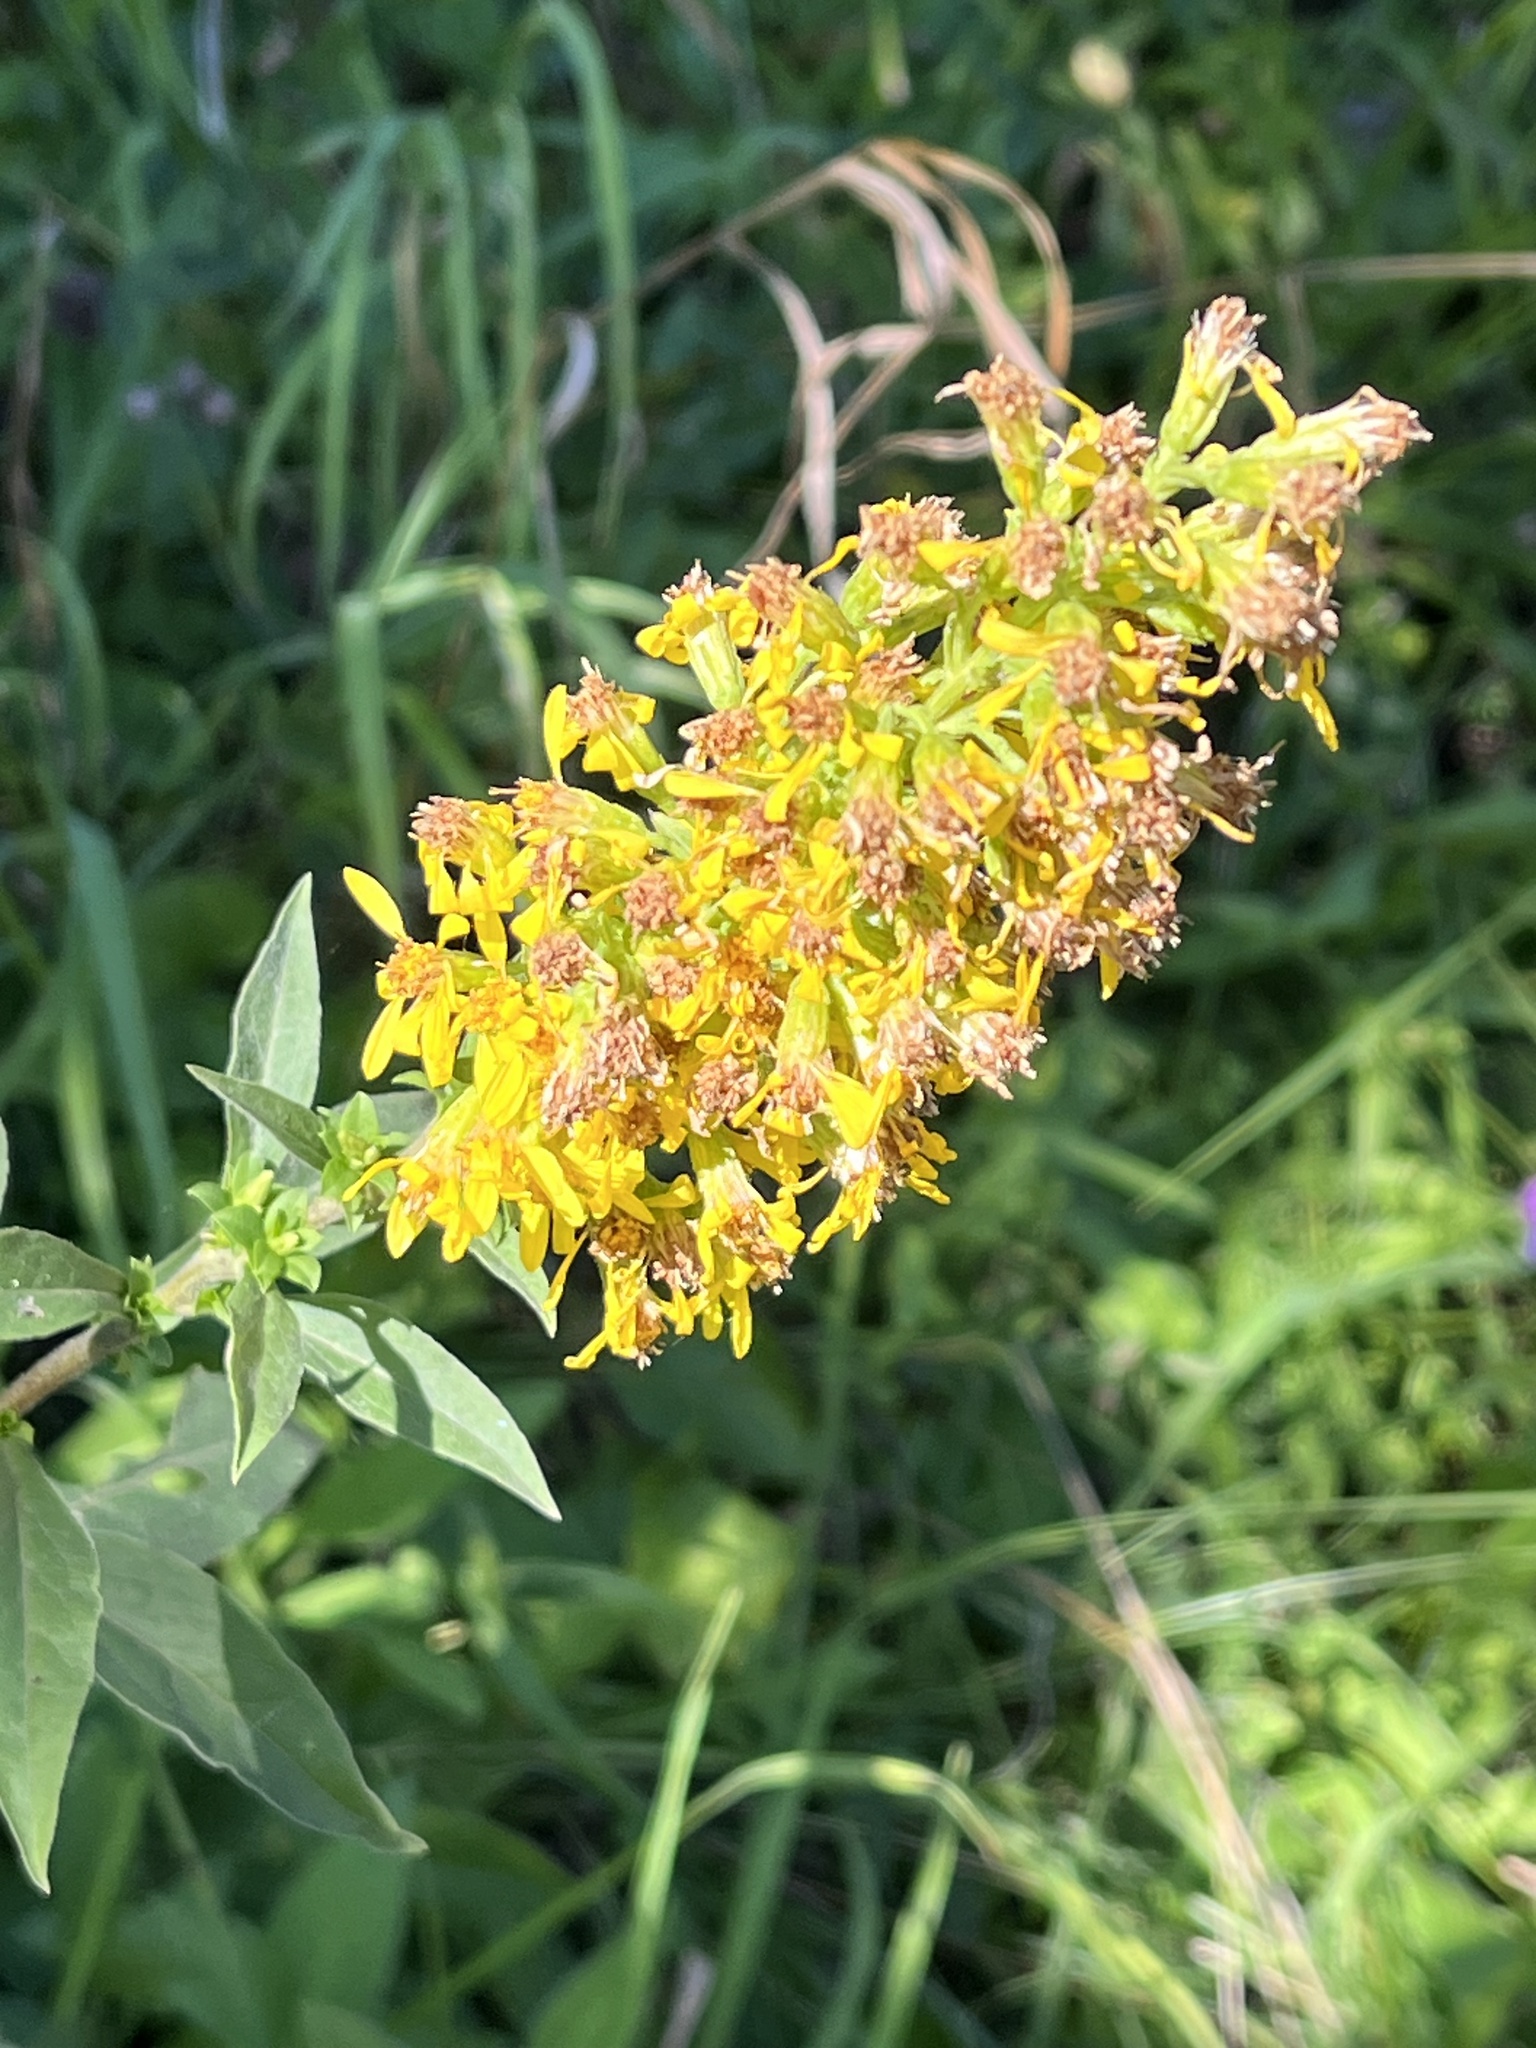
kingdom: Plantae
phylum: Tracheophyta
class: Magnoliopsida
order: Asterales
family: Asteraceae
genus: Solidago
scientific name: Solidago virgaurea
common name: Goldenrod
